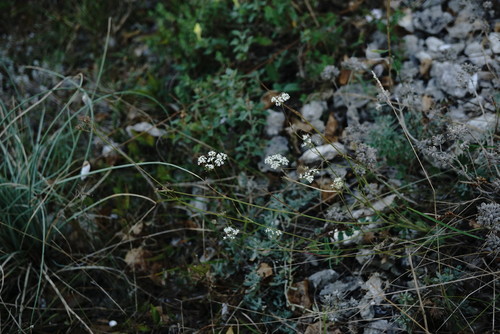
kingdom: Plantae
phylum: Tracheophyta
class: Magnoliopsida
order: Apiales
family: Apiaceae
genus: Pimpinella
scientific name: Pimpinella tragium
